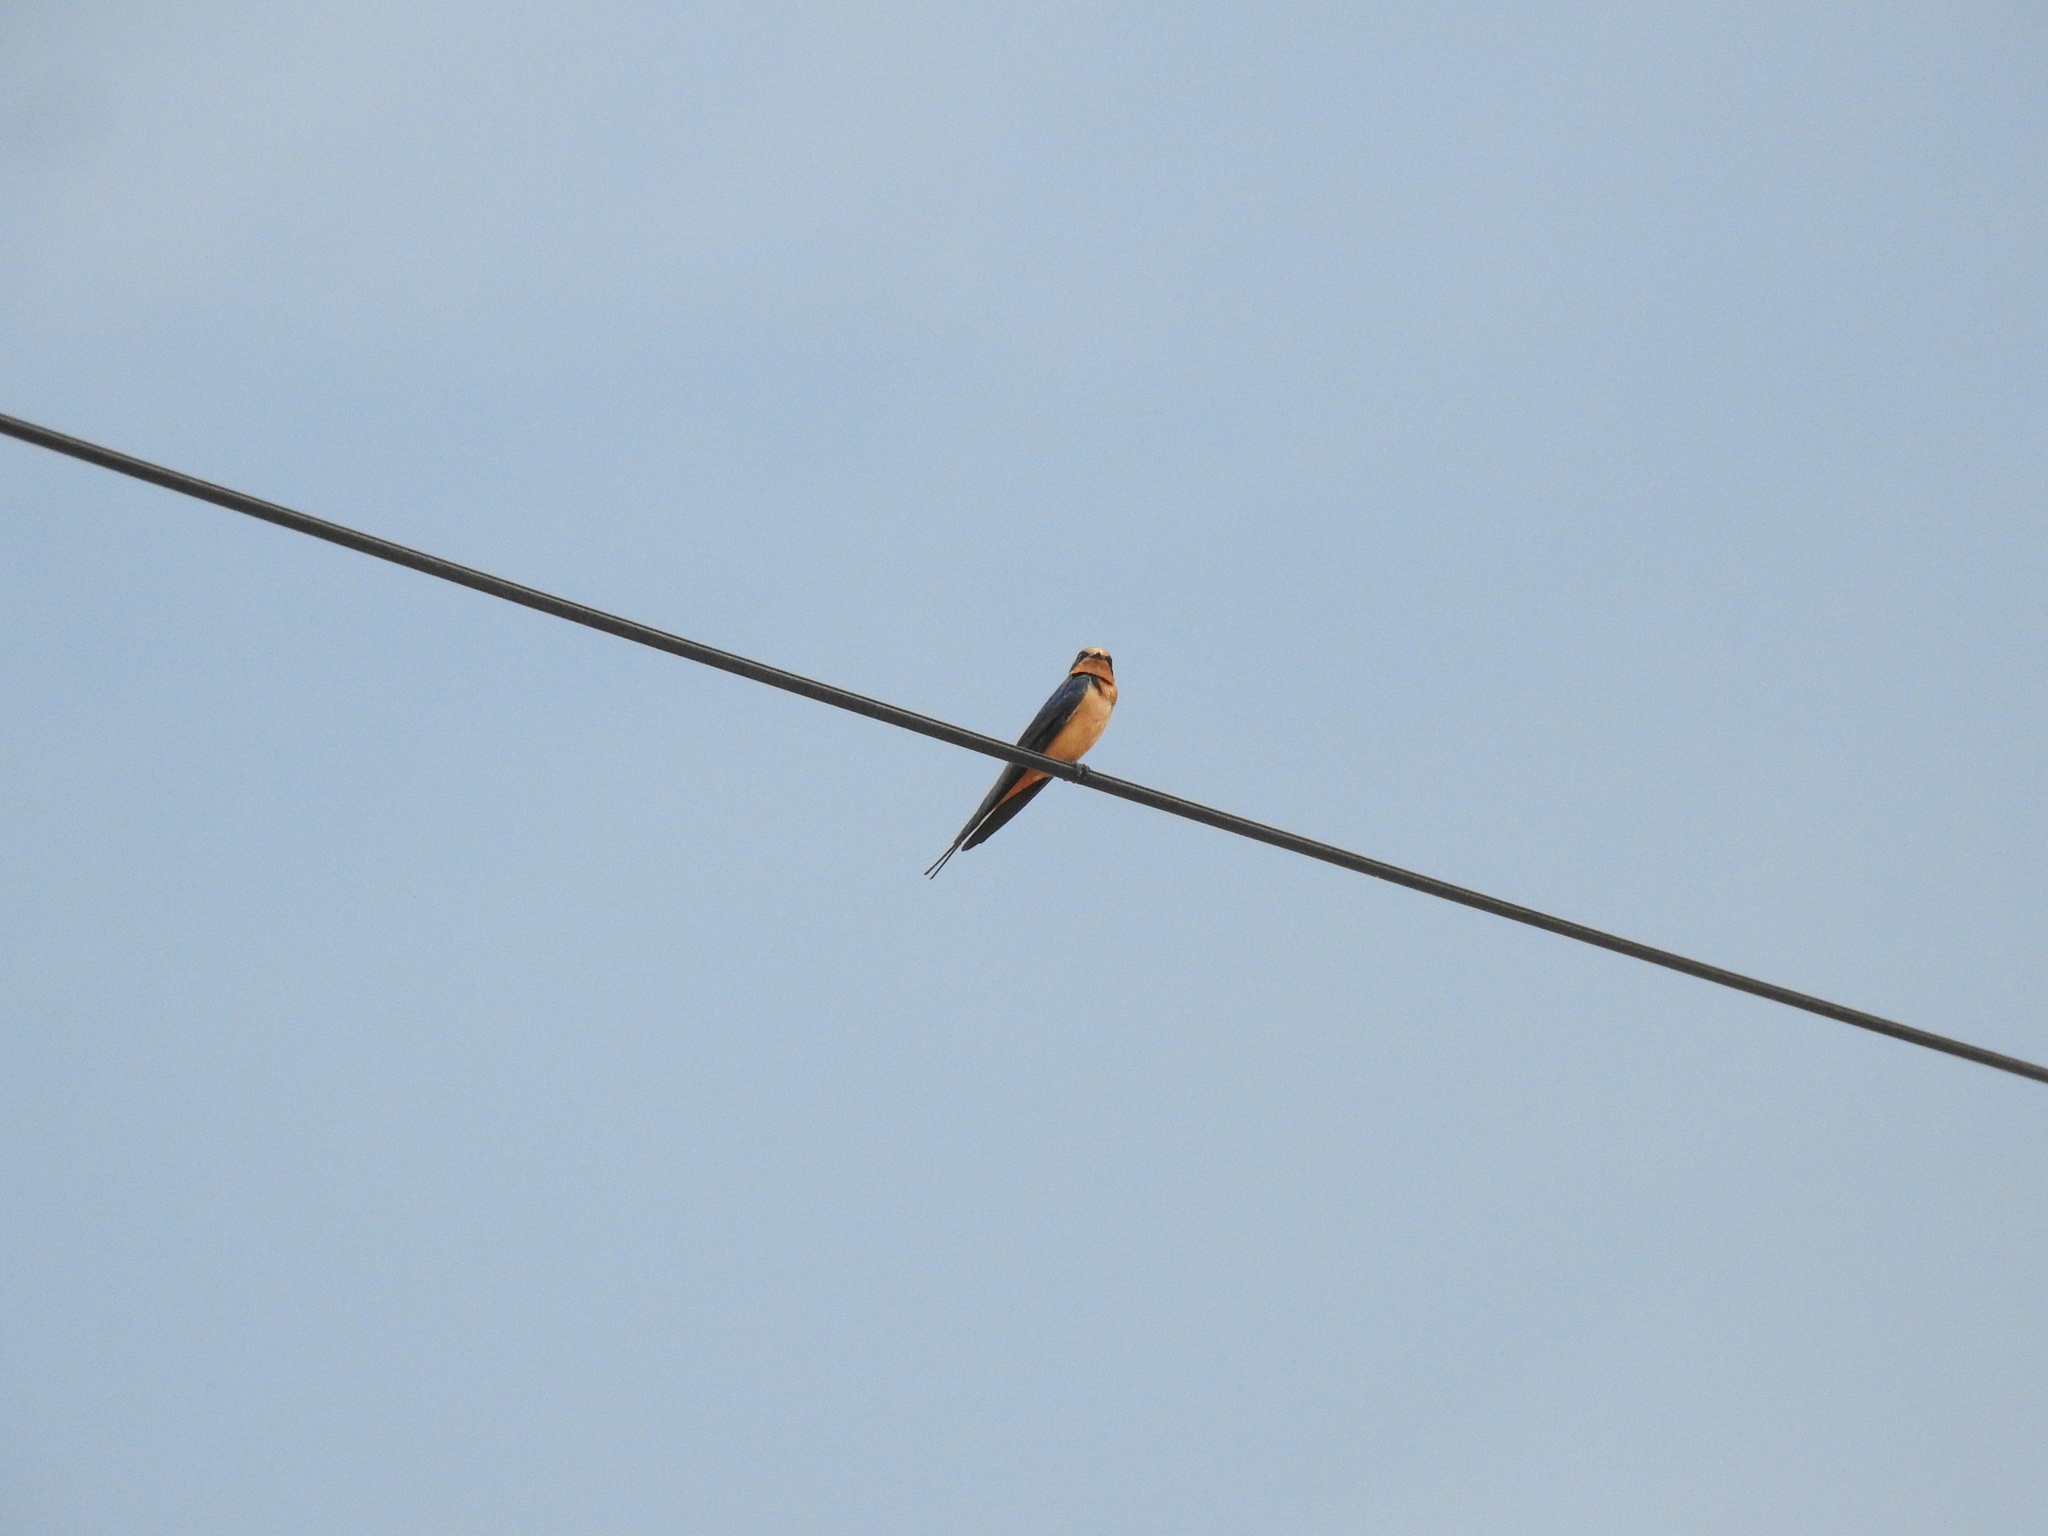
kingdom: Animalia
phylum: Chordata
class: Aves
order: Passeriformes
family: Hirundinidae
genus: Hirundo
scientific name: Hirundo rustica
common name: Barn swallow
